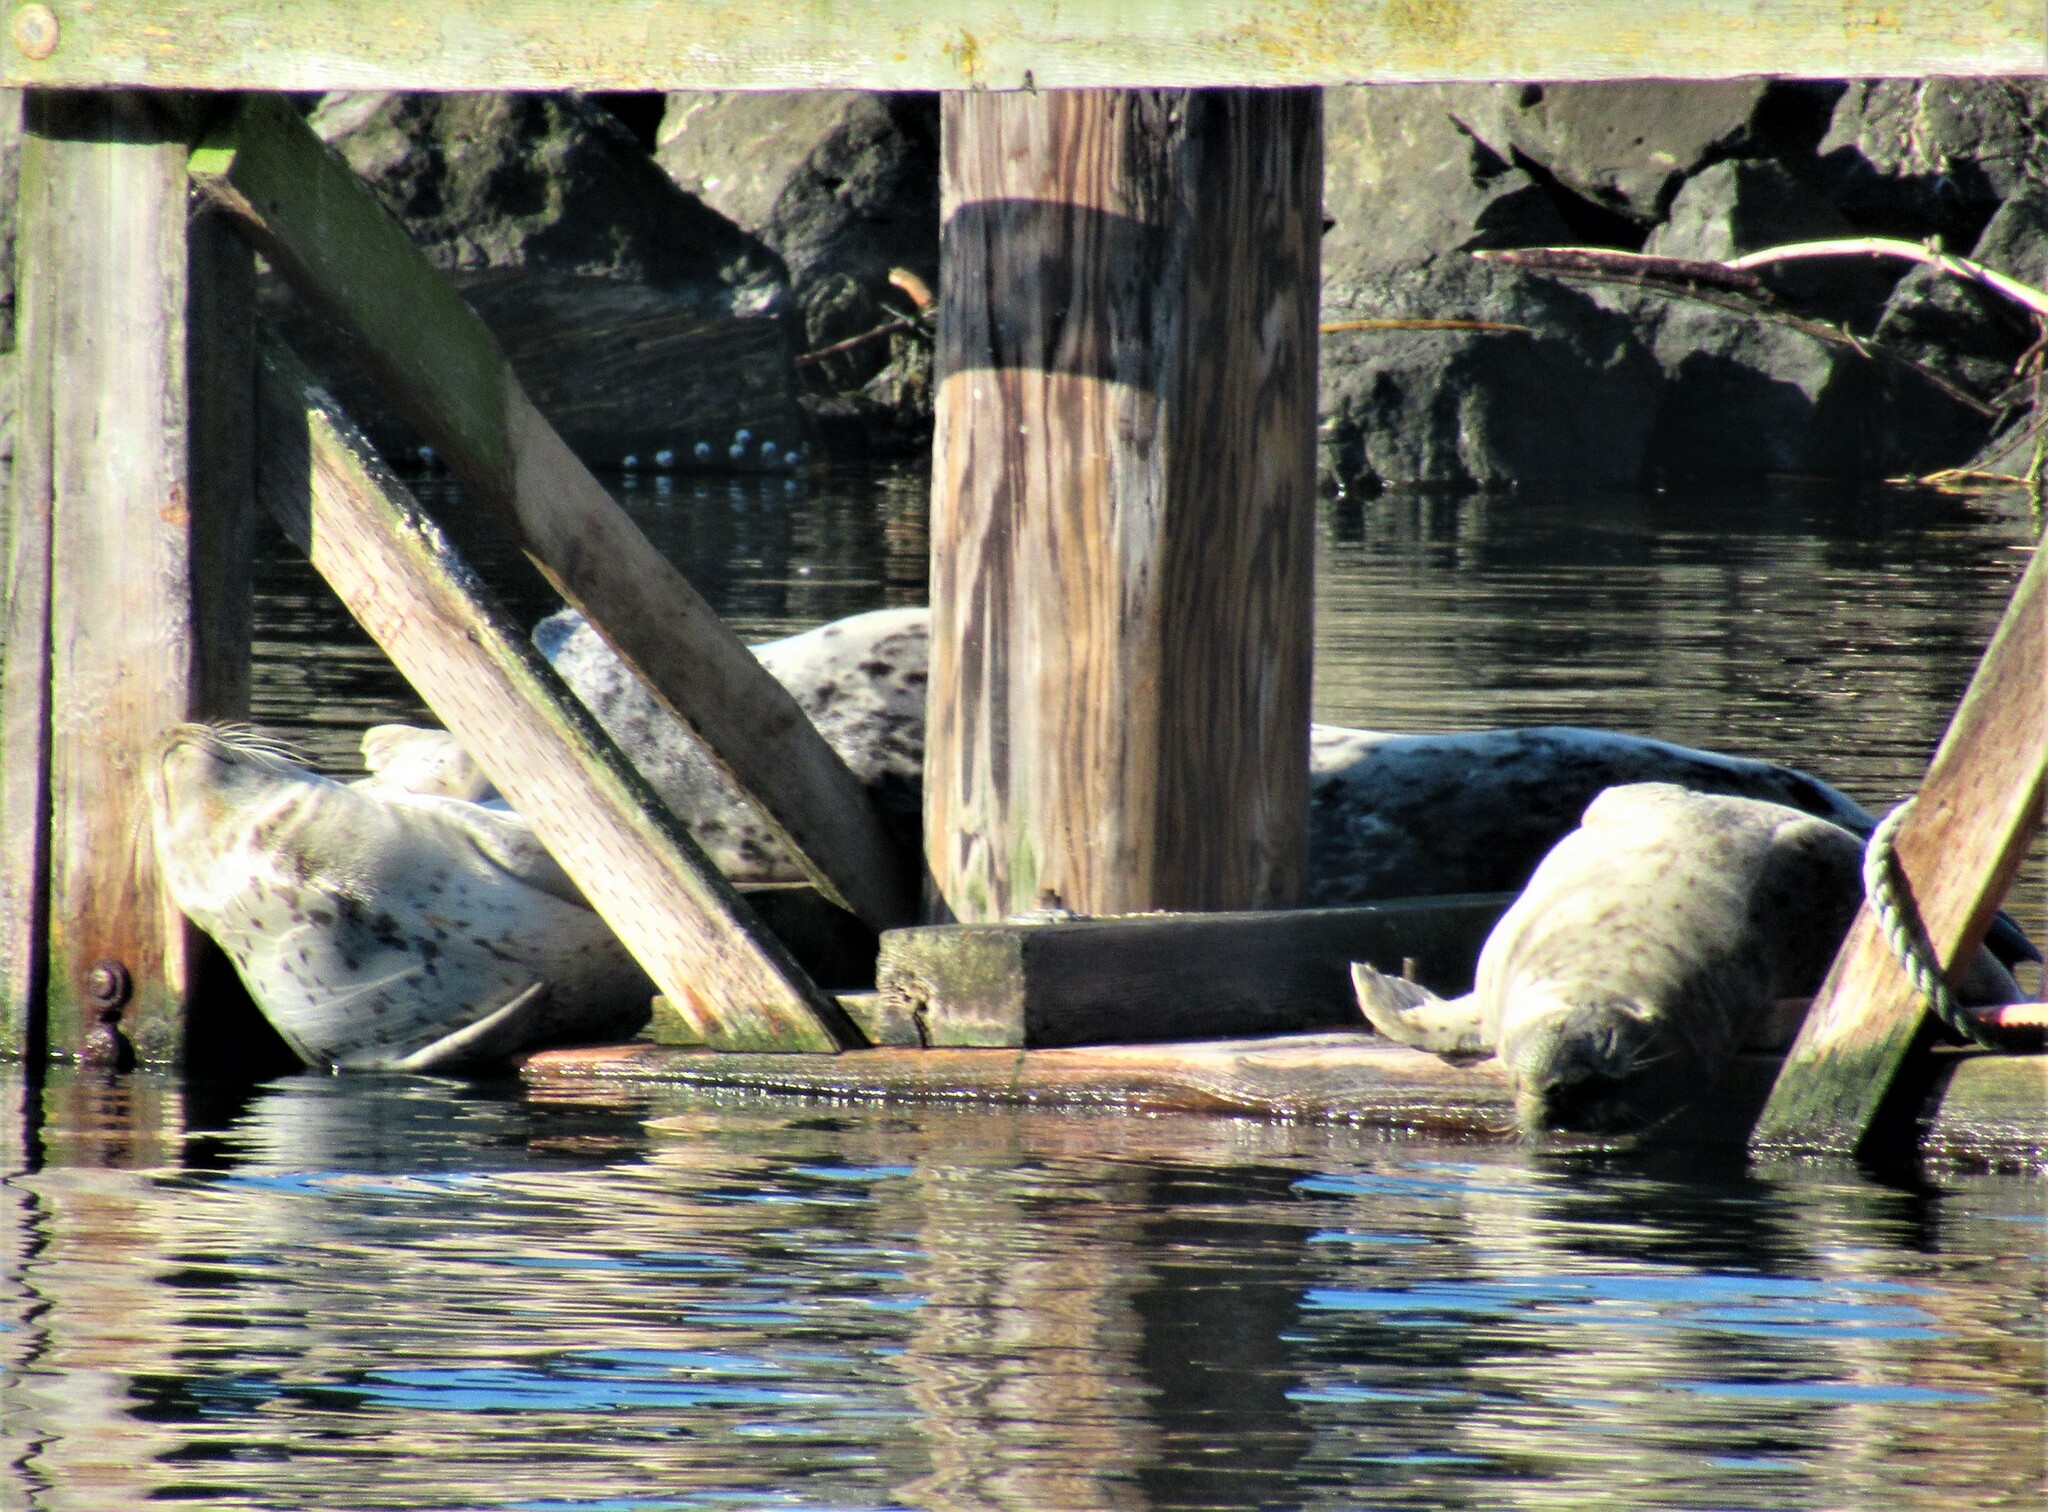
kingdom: Animalia
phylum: Chordata
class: Mammalia
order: Carnivora
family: Phocidae
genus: Phoca
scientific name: Phoca vitulina
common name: Harbor seal
